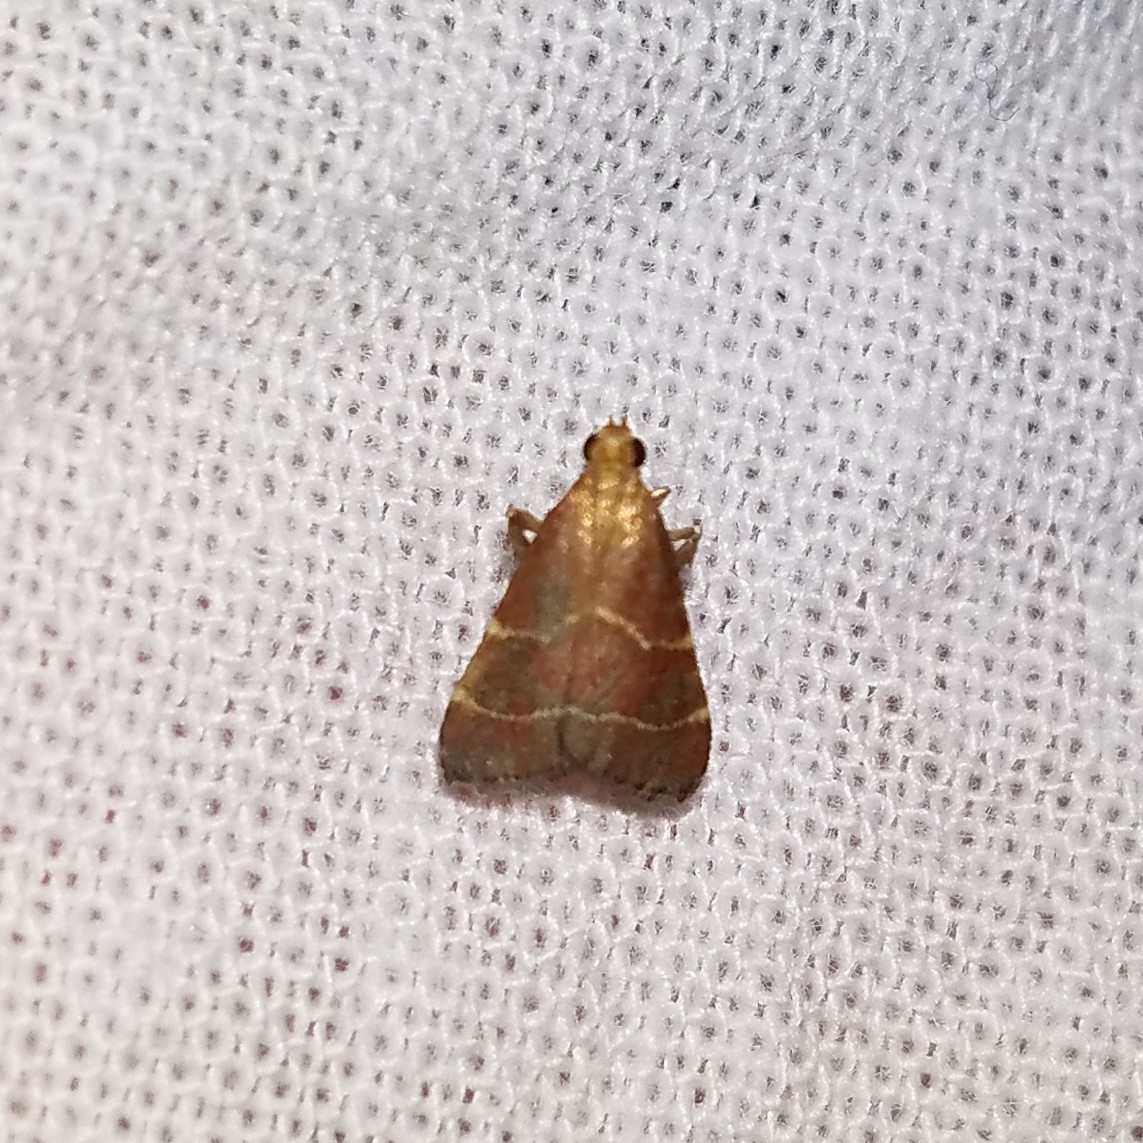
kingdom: Animalia
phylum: Arthropoda
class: Insecta
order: Lepidoptera
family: Pyralidae
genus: Arta
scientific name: Arta statalis
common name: Posturing arta moth
